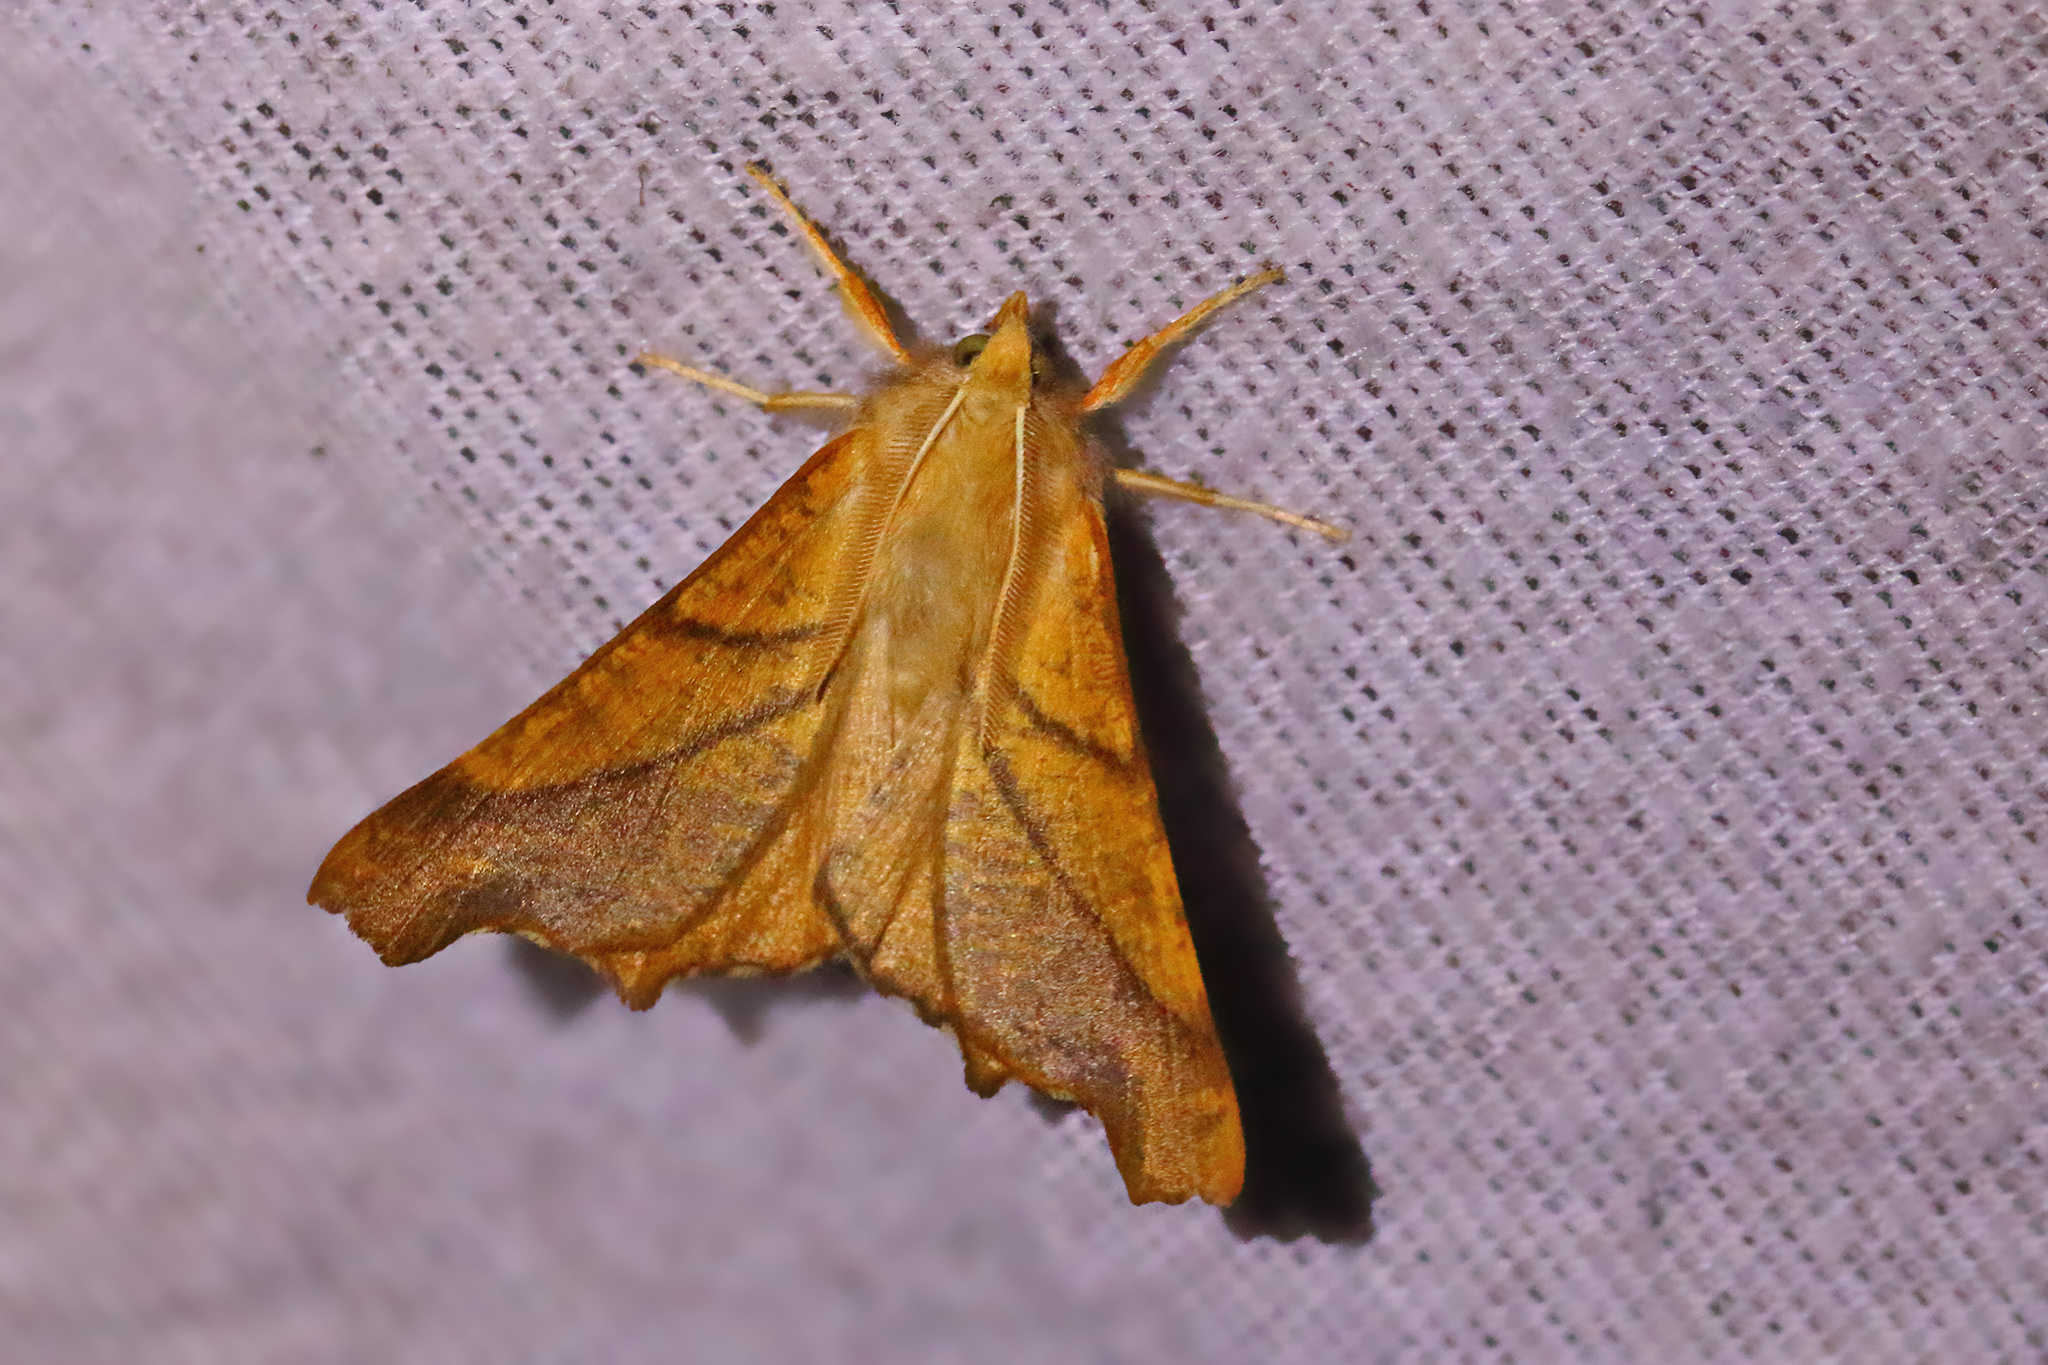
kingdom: Animalia
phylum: Arthropoda
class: Insecta
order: Lepidoptera
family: Geometridae
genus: Ennomos
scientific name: Ennomos fuscantaria
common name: Dusky thorn
